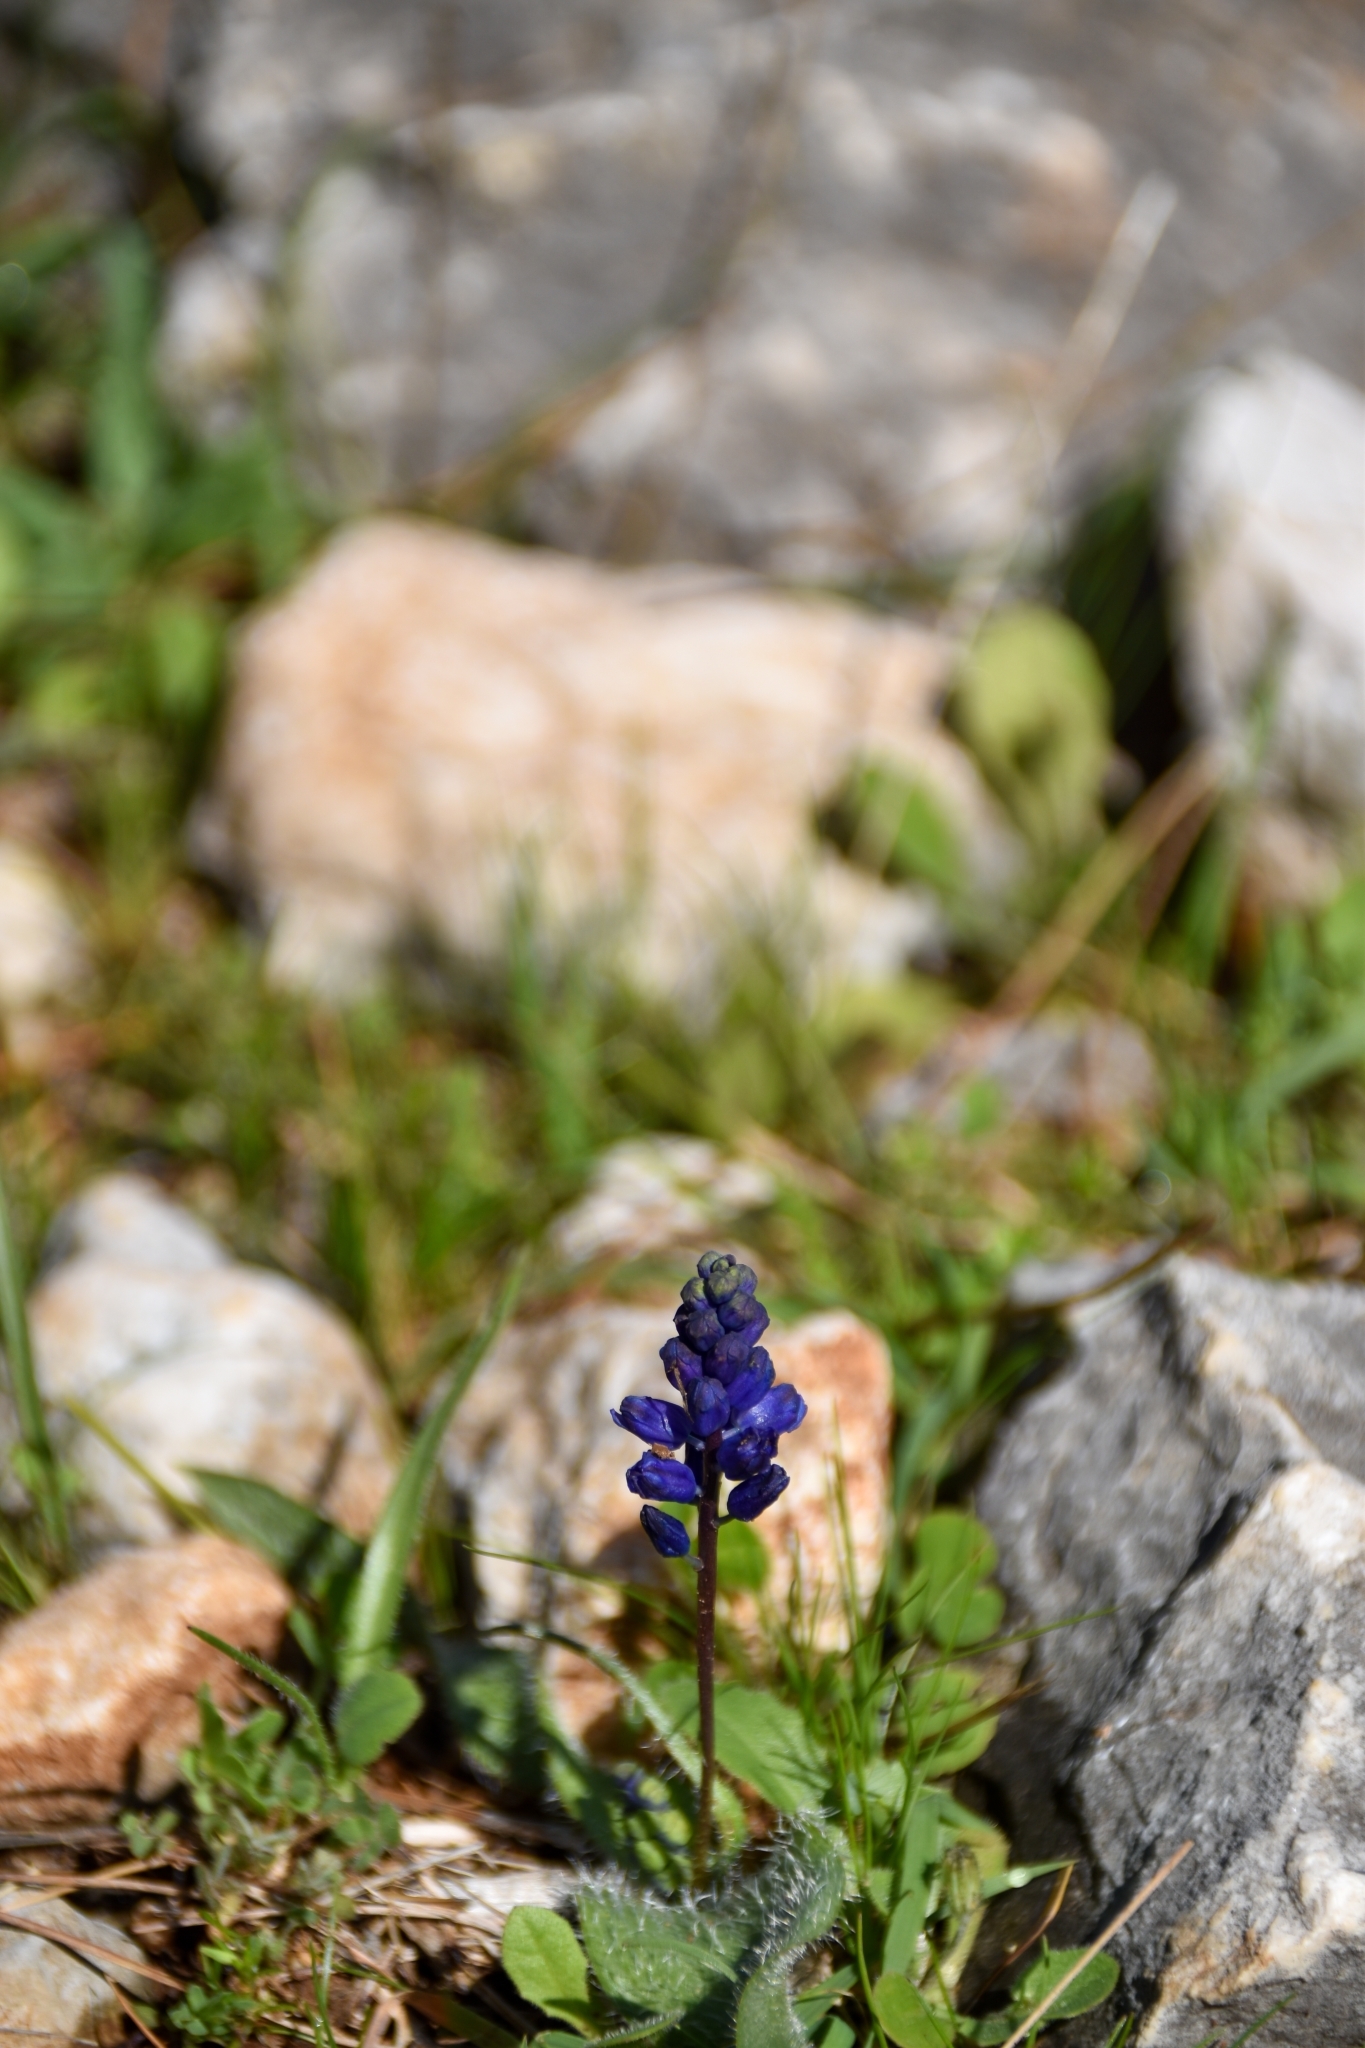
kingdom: Plantae
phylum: Tracheophyta
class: Liliopsida
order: Asparagales
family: Asparagaceae
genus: Hyacinthella
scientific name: Hyacinthella hispida
